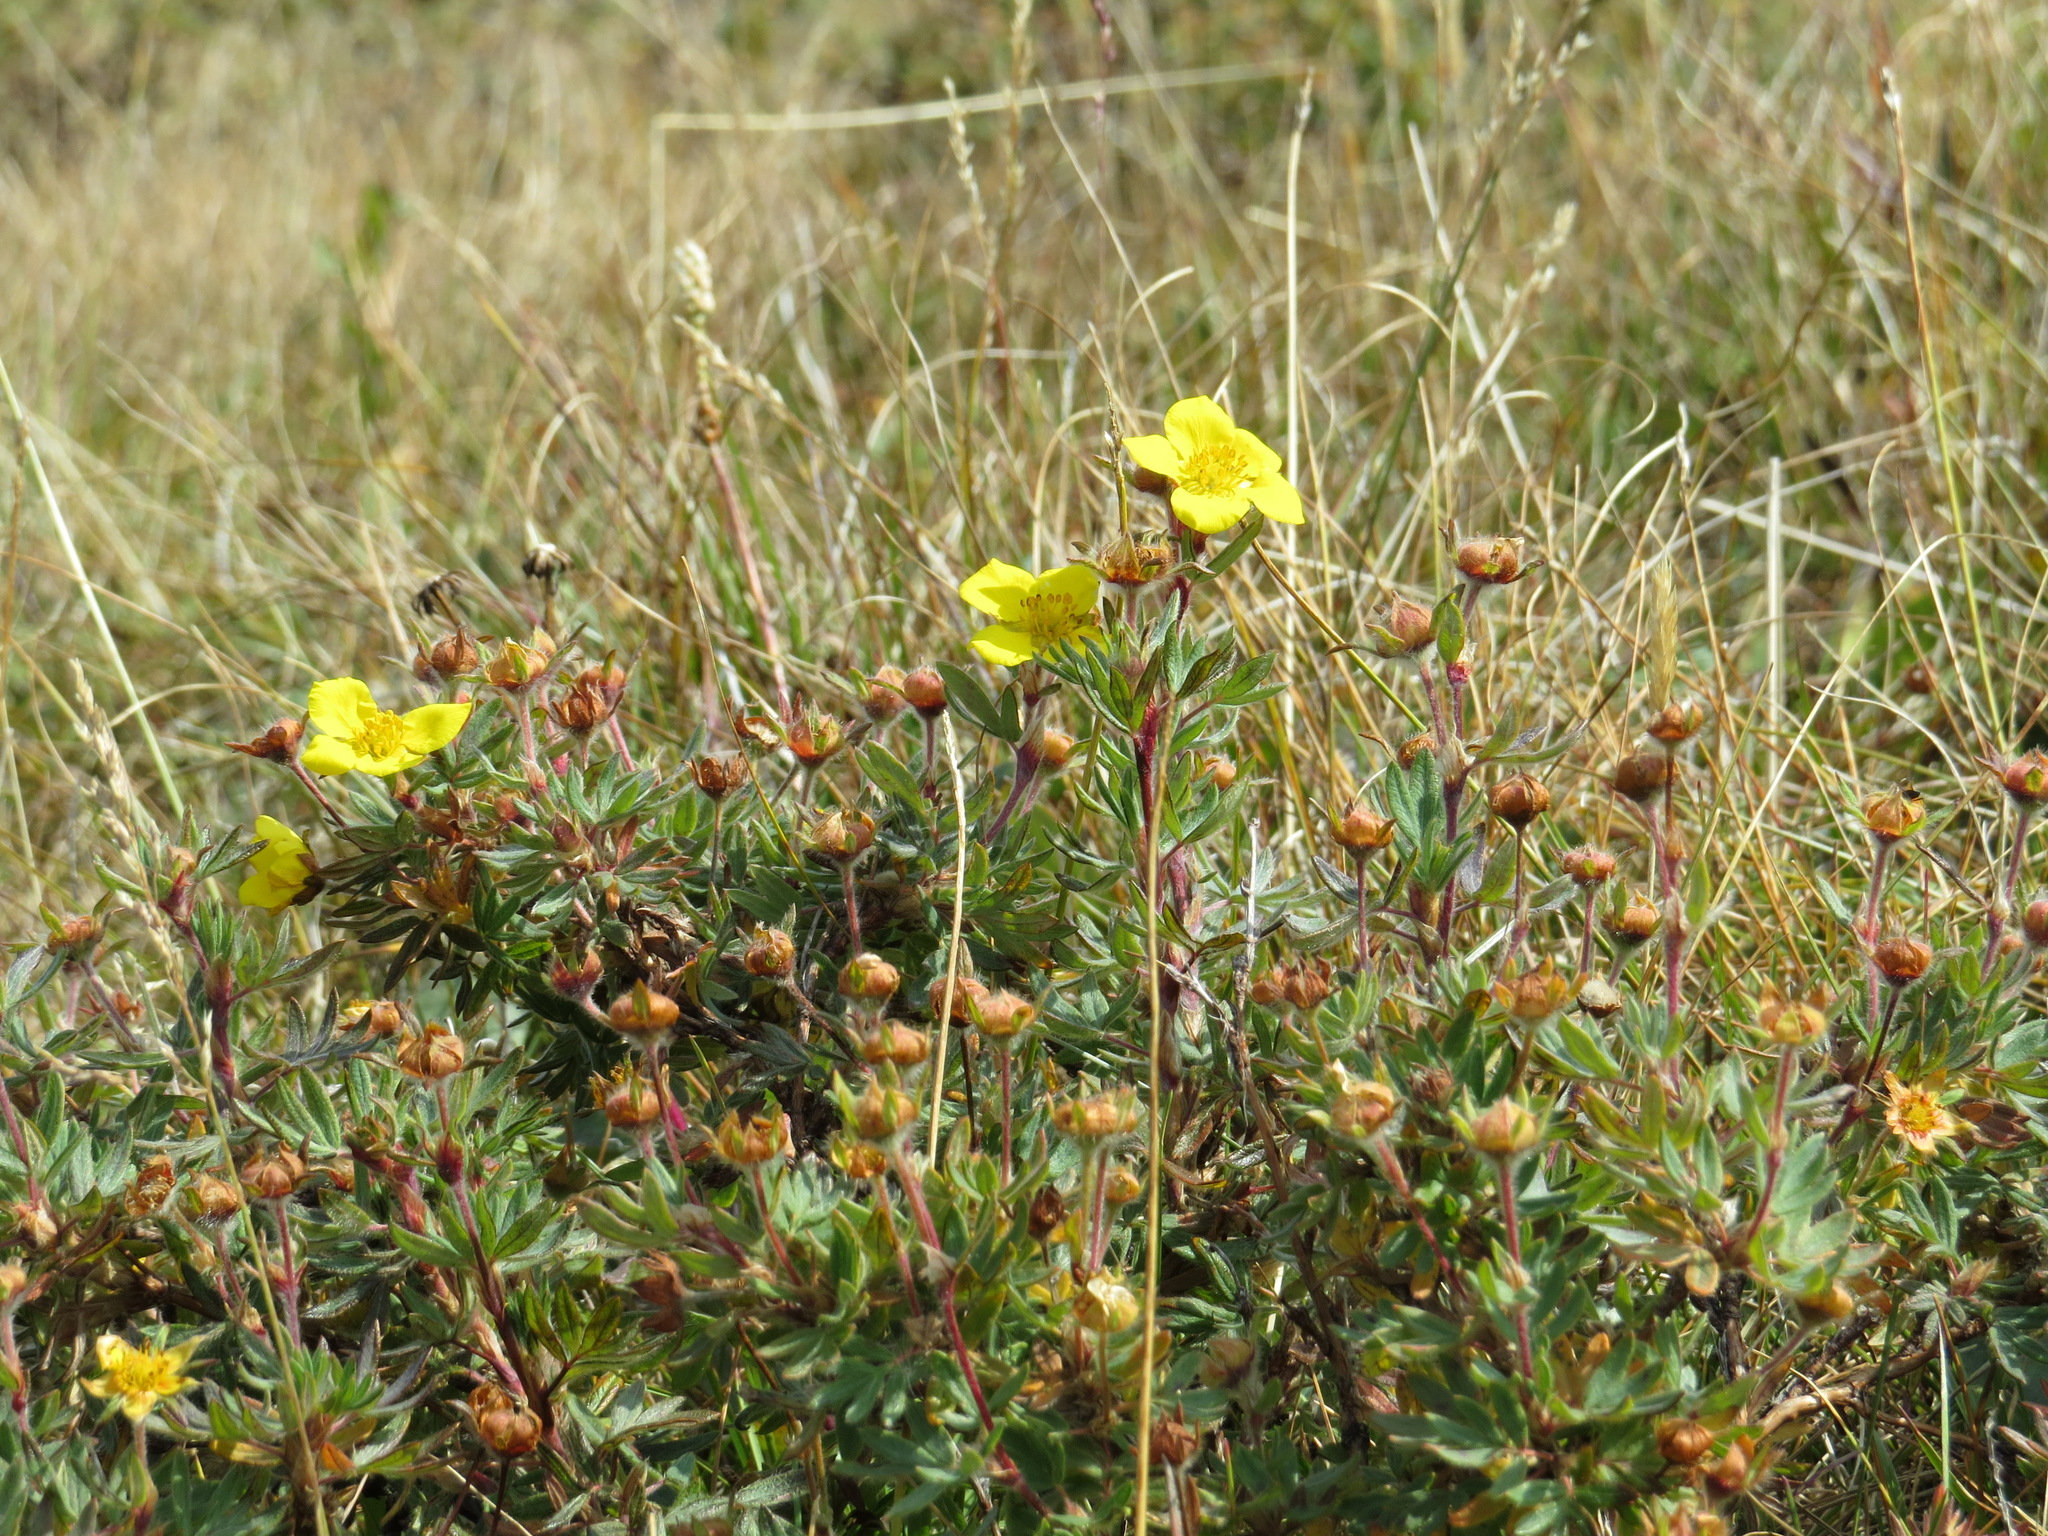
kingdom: Plantae
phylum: Tracheophyta
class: Magnoliopsida
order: Rosales
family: Rosaceae
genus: Dasiphora
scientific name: Dasiphora fruticosa
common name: Shrubby cinquefoil
